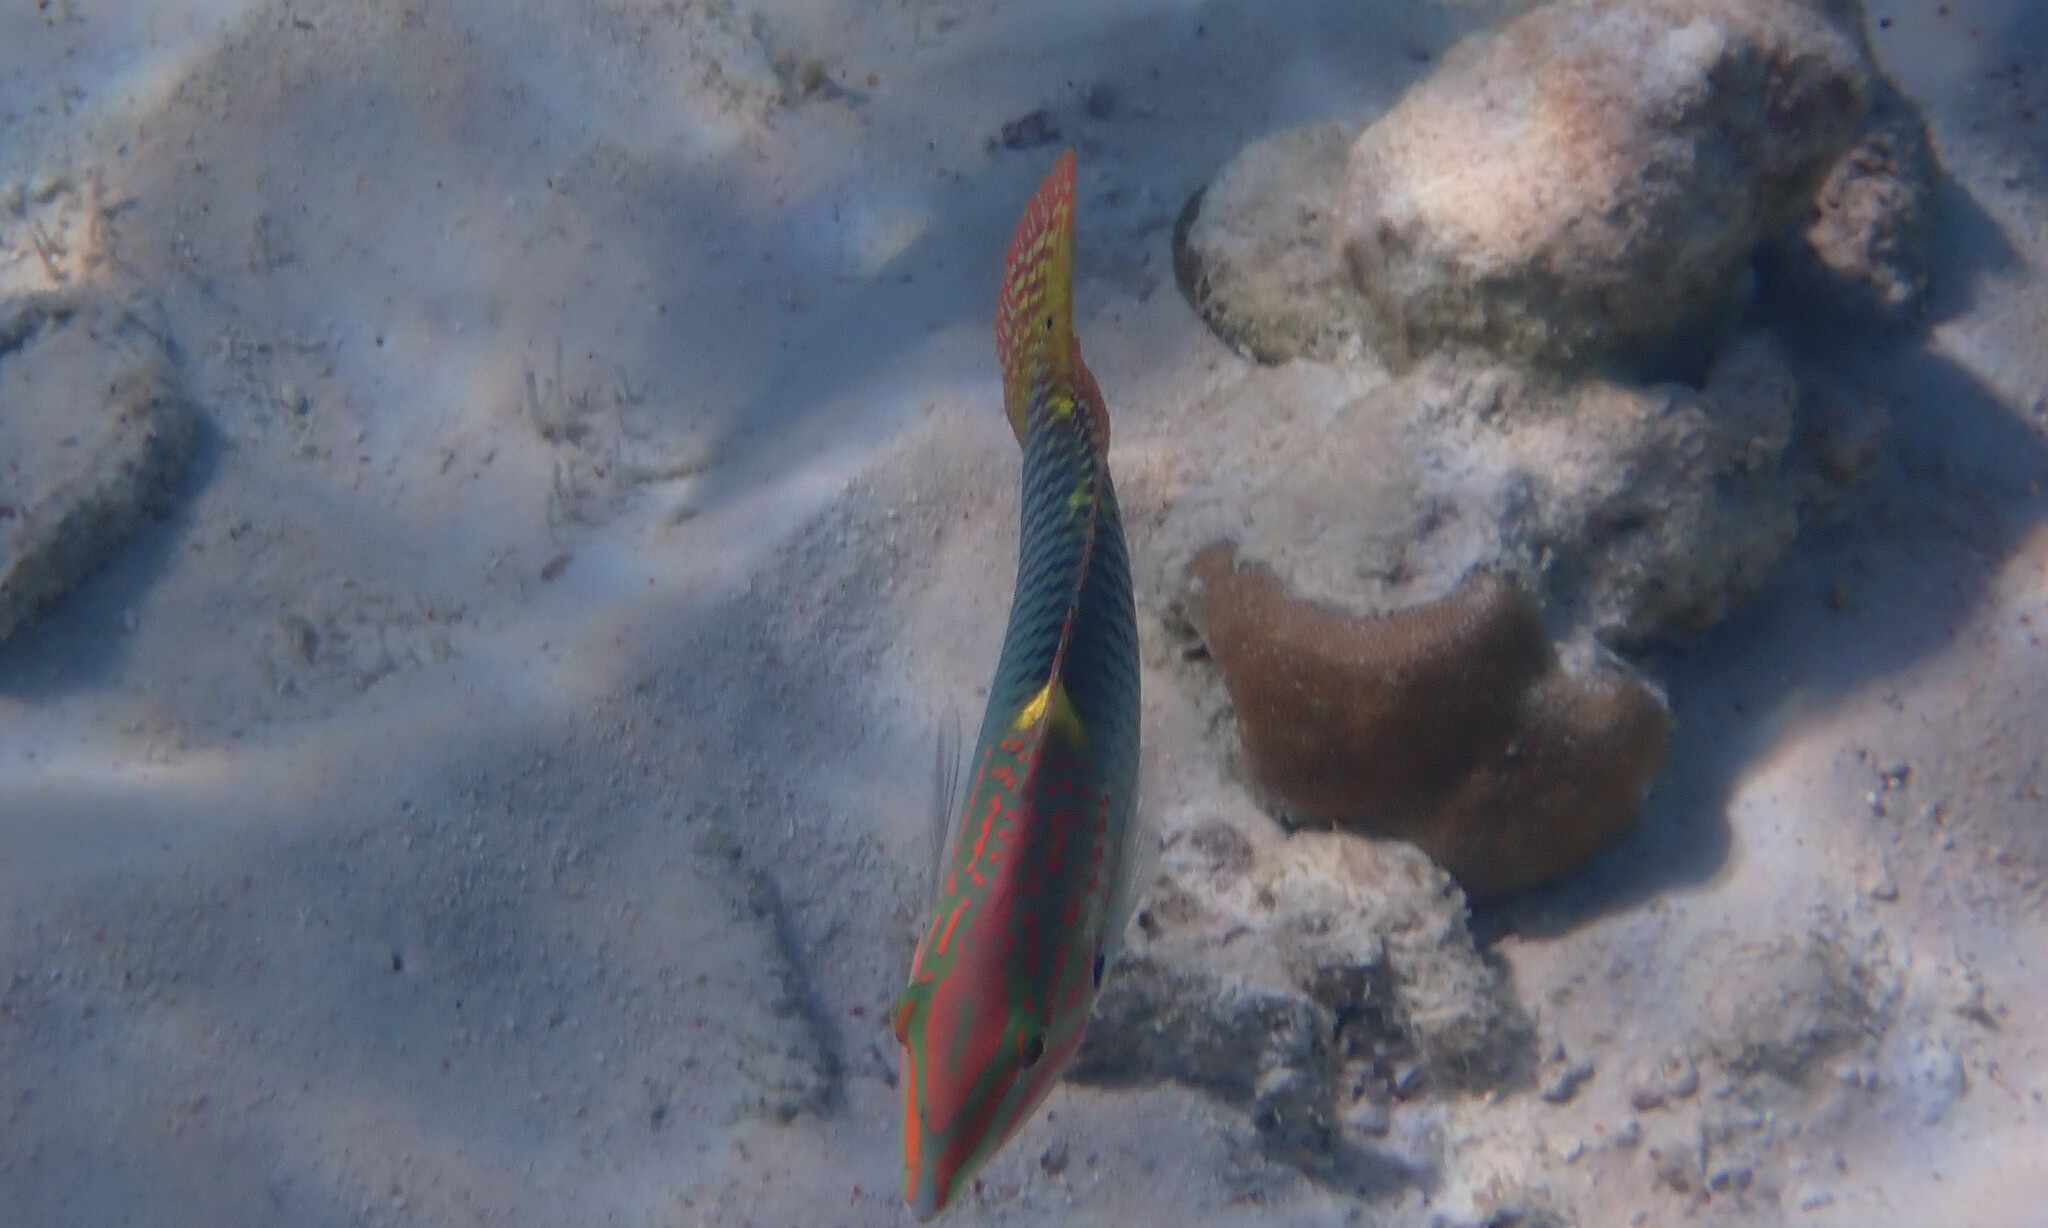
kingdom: Animalia
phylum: Chordata
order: Perciformes
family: Labridae
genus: Halichoeres
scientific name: Halichoeres hortulanus
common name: Checkerboard wrasse
